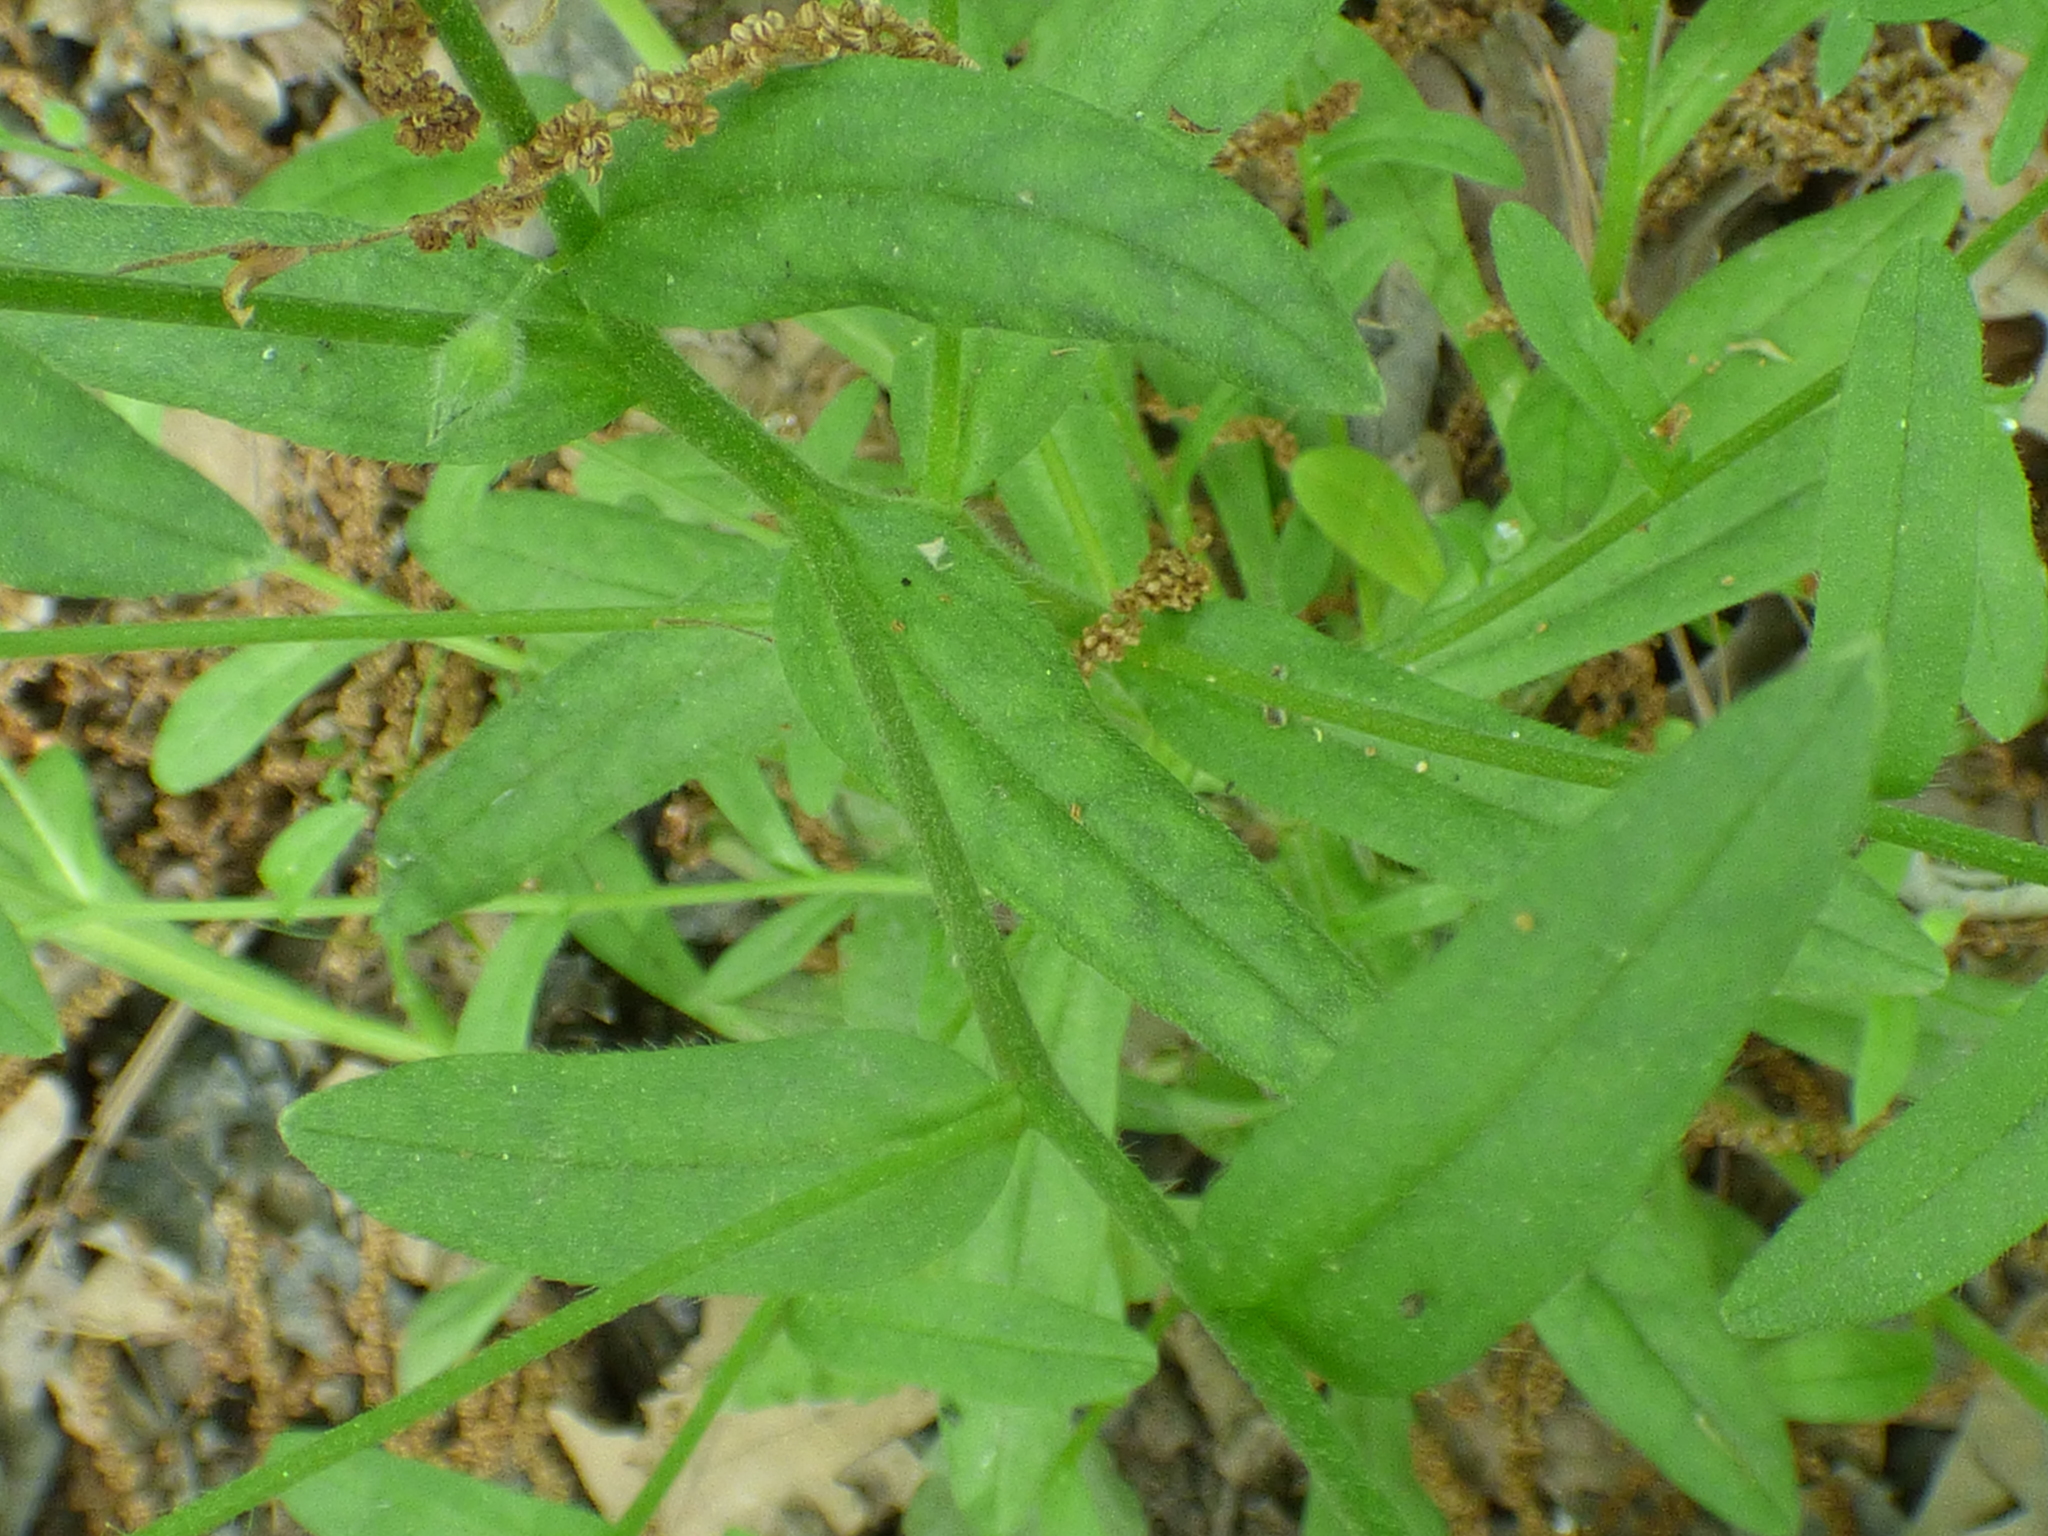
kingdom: Plantae
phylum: Tracheophyta
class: Magnoliopsida
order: Boraginales
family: Boraginaceae
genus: Myosotis
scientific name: Myosotis macrosperma
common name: Large-seed forget-me-not
